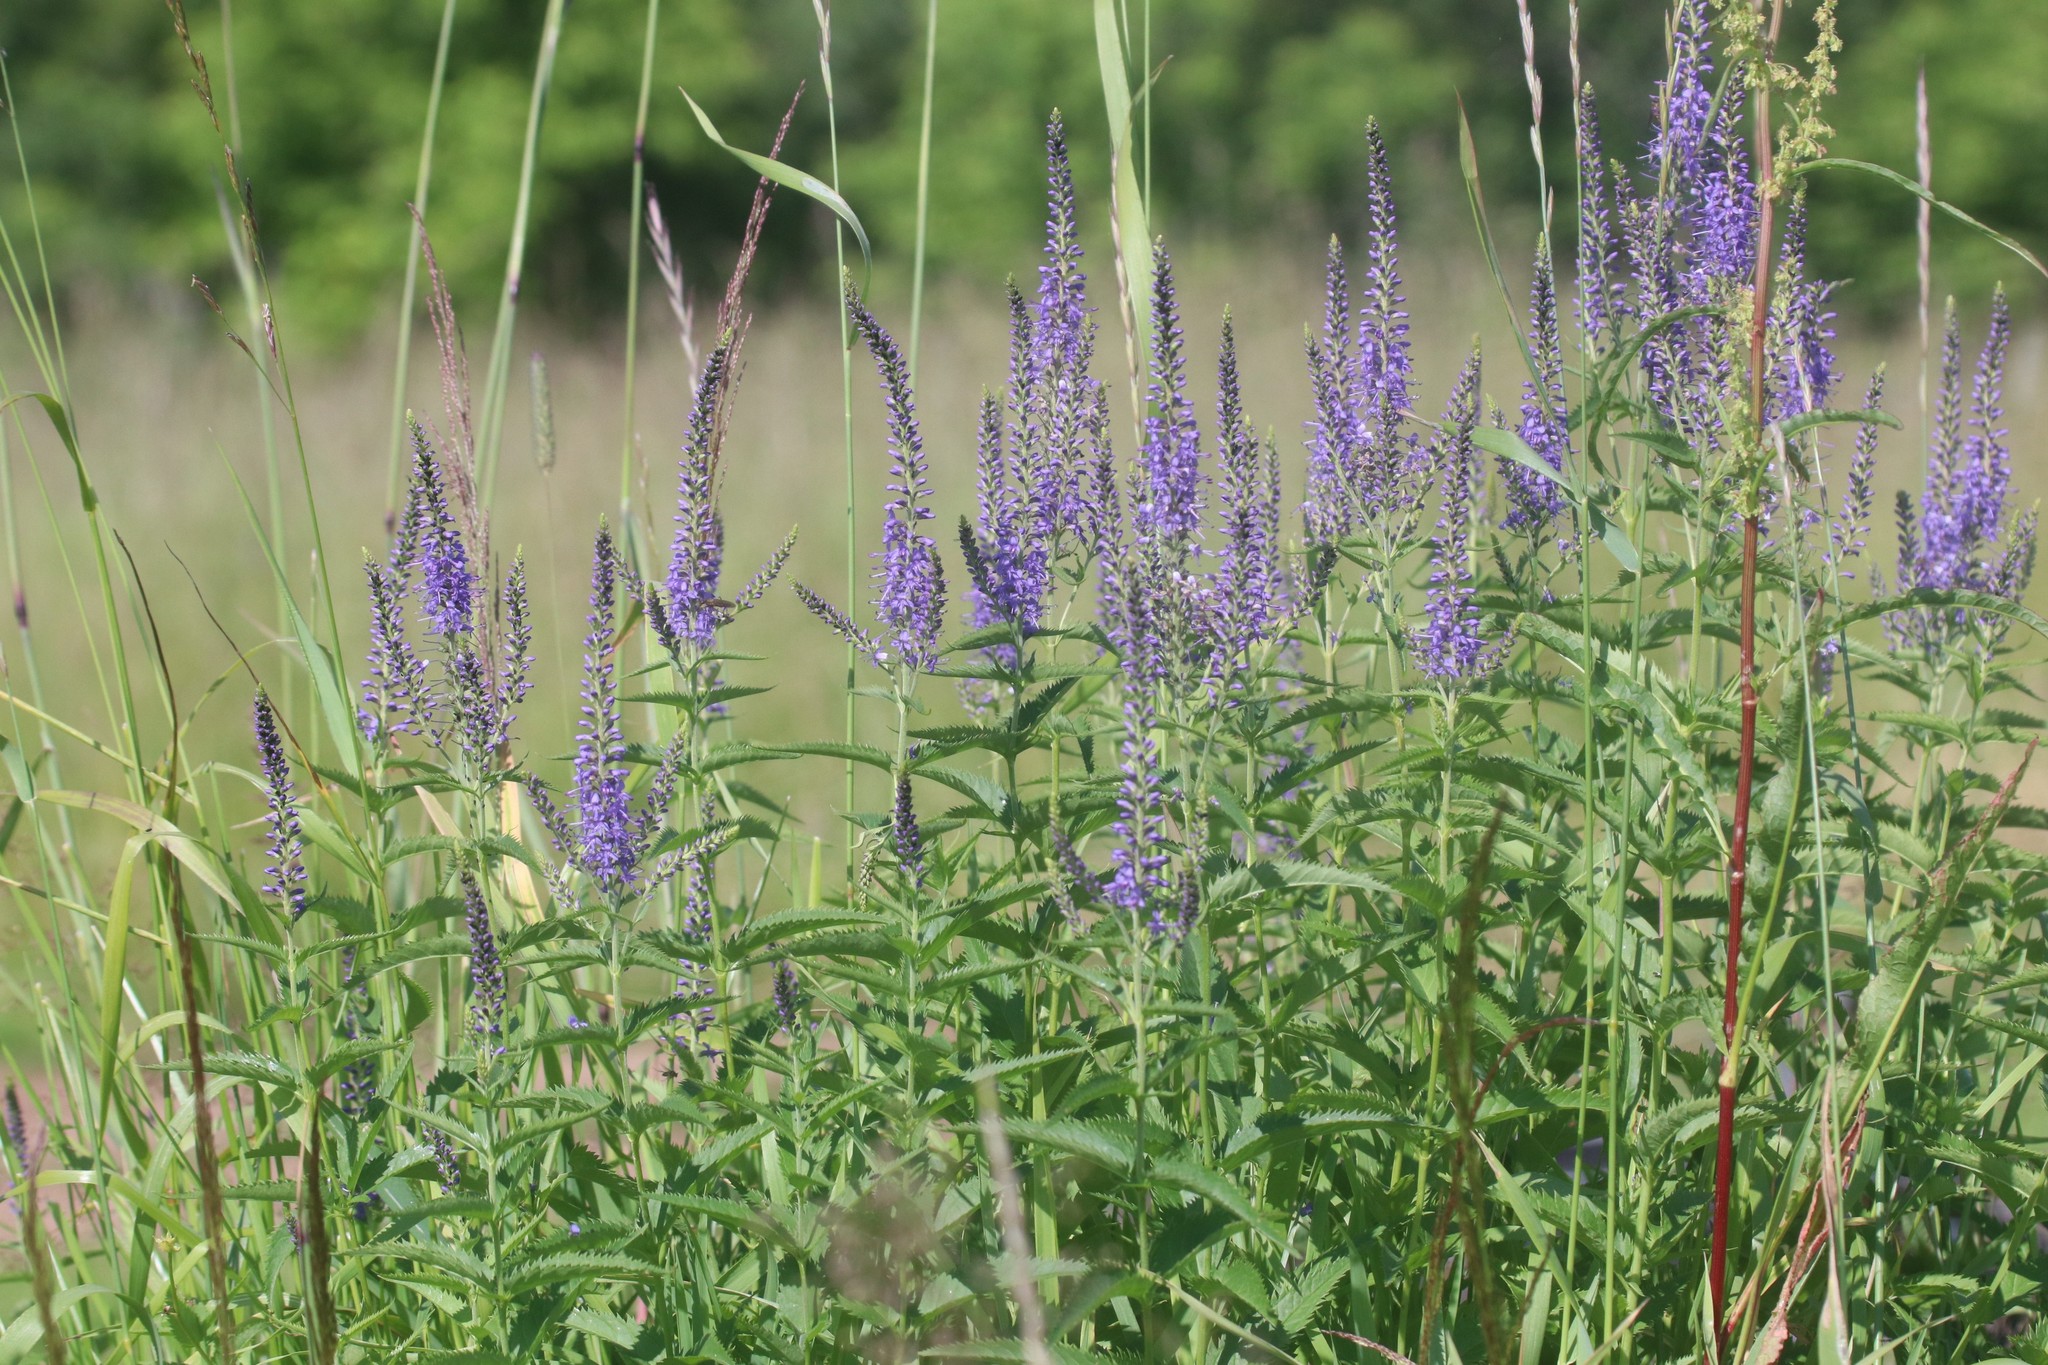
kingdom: Plantae
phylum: Tracheophyta
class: Magnoliopsida
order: Lamiales
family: Plantaginaceae
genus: Veronica
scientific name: Veronica longifolia
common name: Garden speedwell
